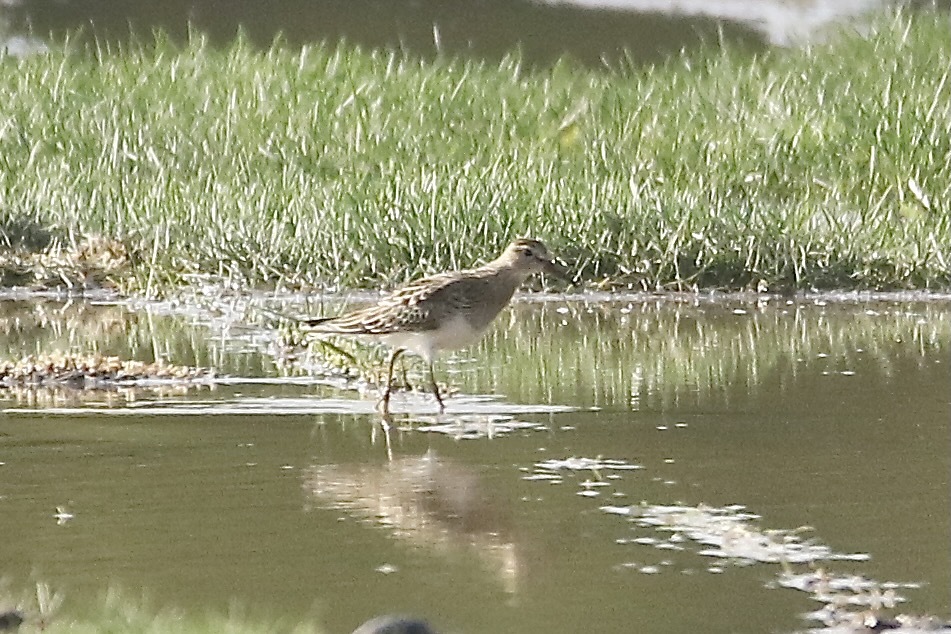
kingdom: Animalia
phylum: Chordata
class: Aves
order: Charadriiformes
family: Scolopacidae
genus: Calidris
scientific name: Calidris melanotos
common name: Pectoral sandpiper
